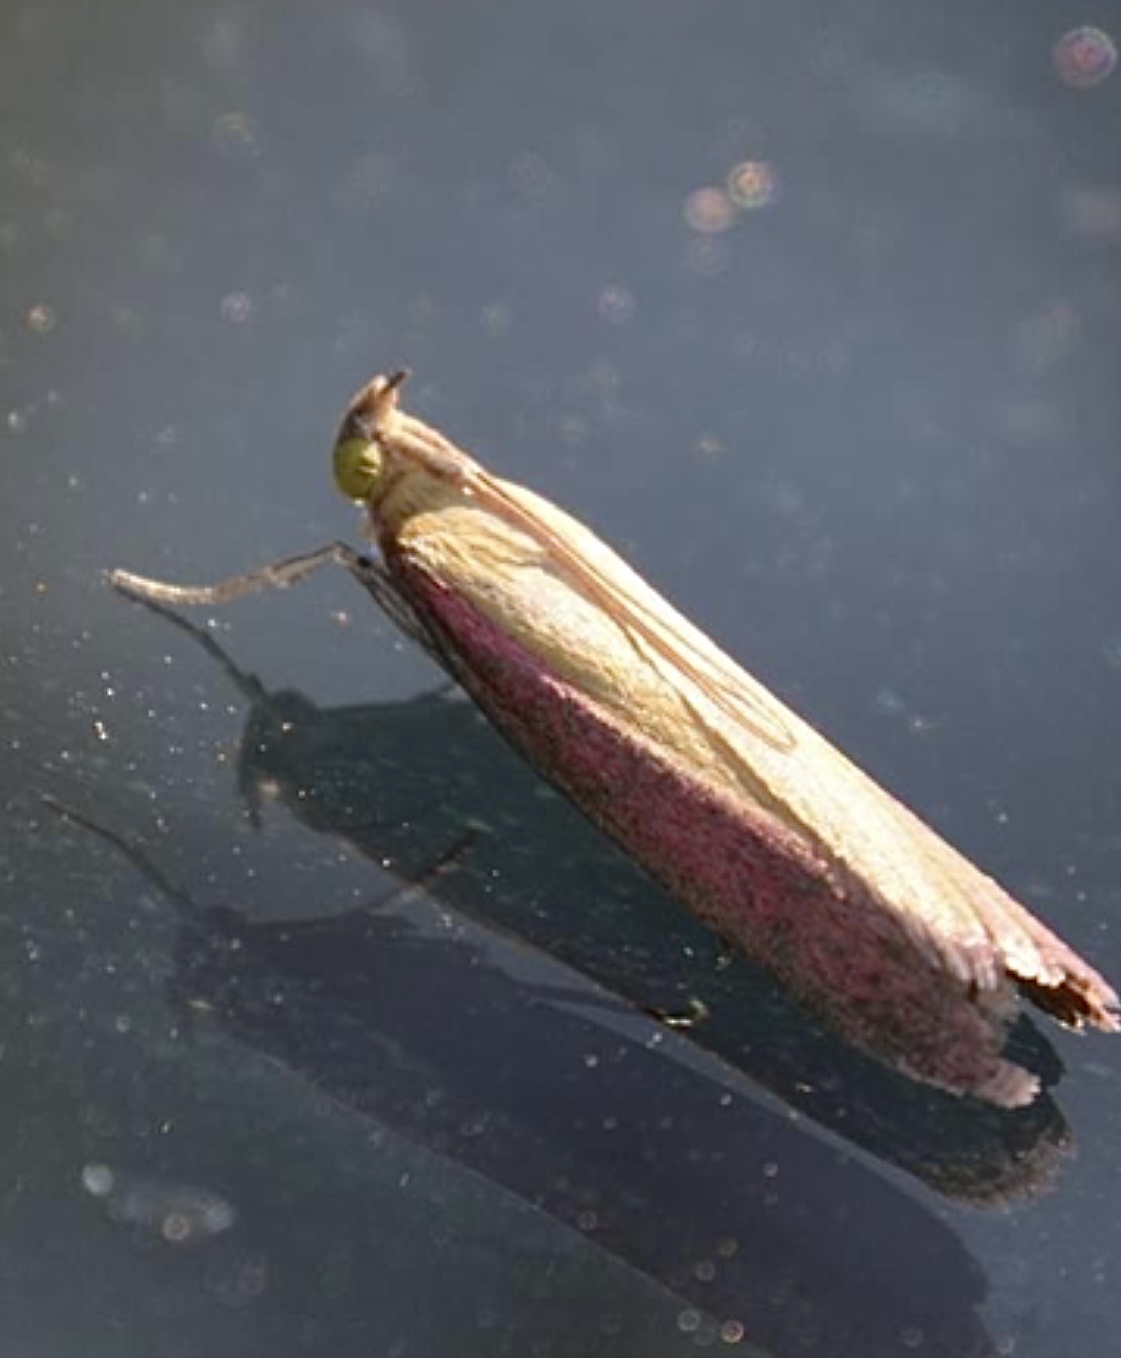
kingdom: Animalia
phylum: Arthropoda
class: Insecta
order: Lepidoptera
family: Pyralidae
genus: Oncocera
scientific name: Oncocera semirubella
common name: Rosy-striped knot-horn
